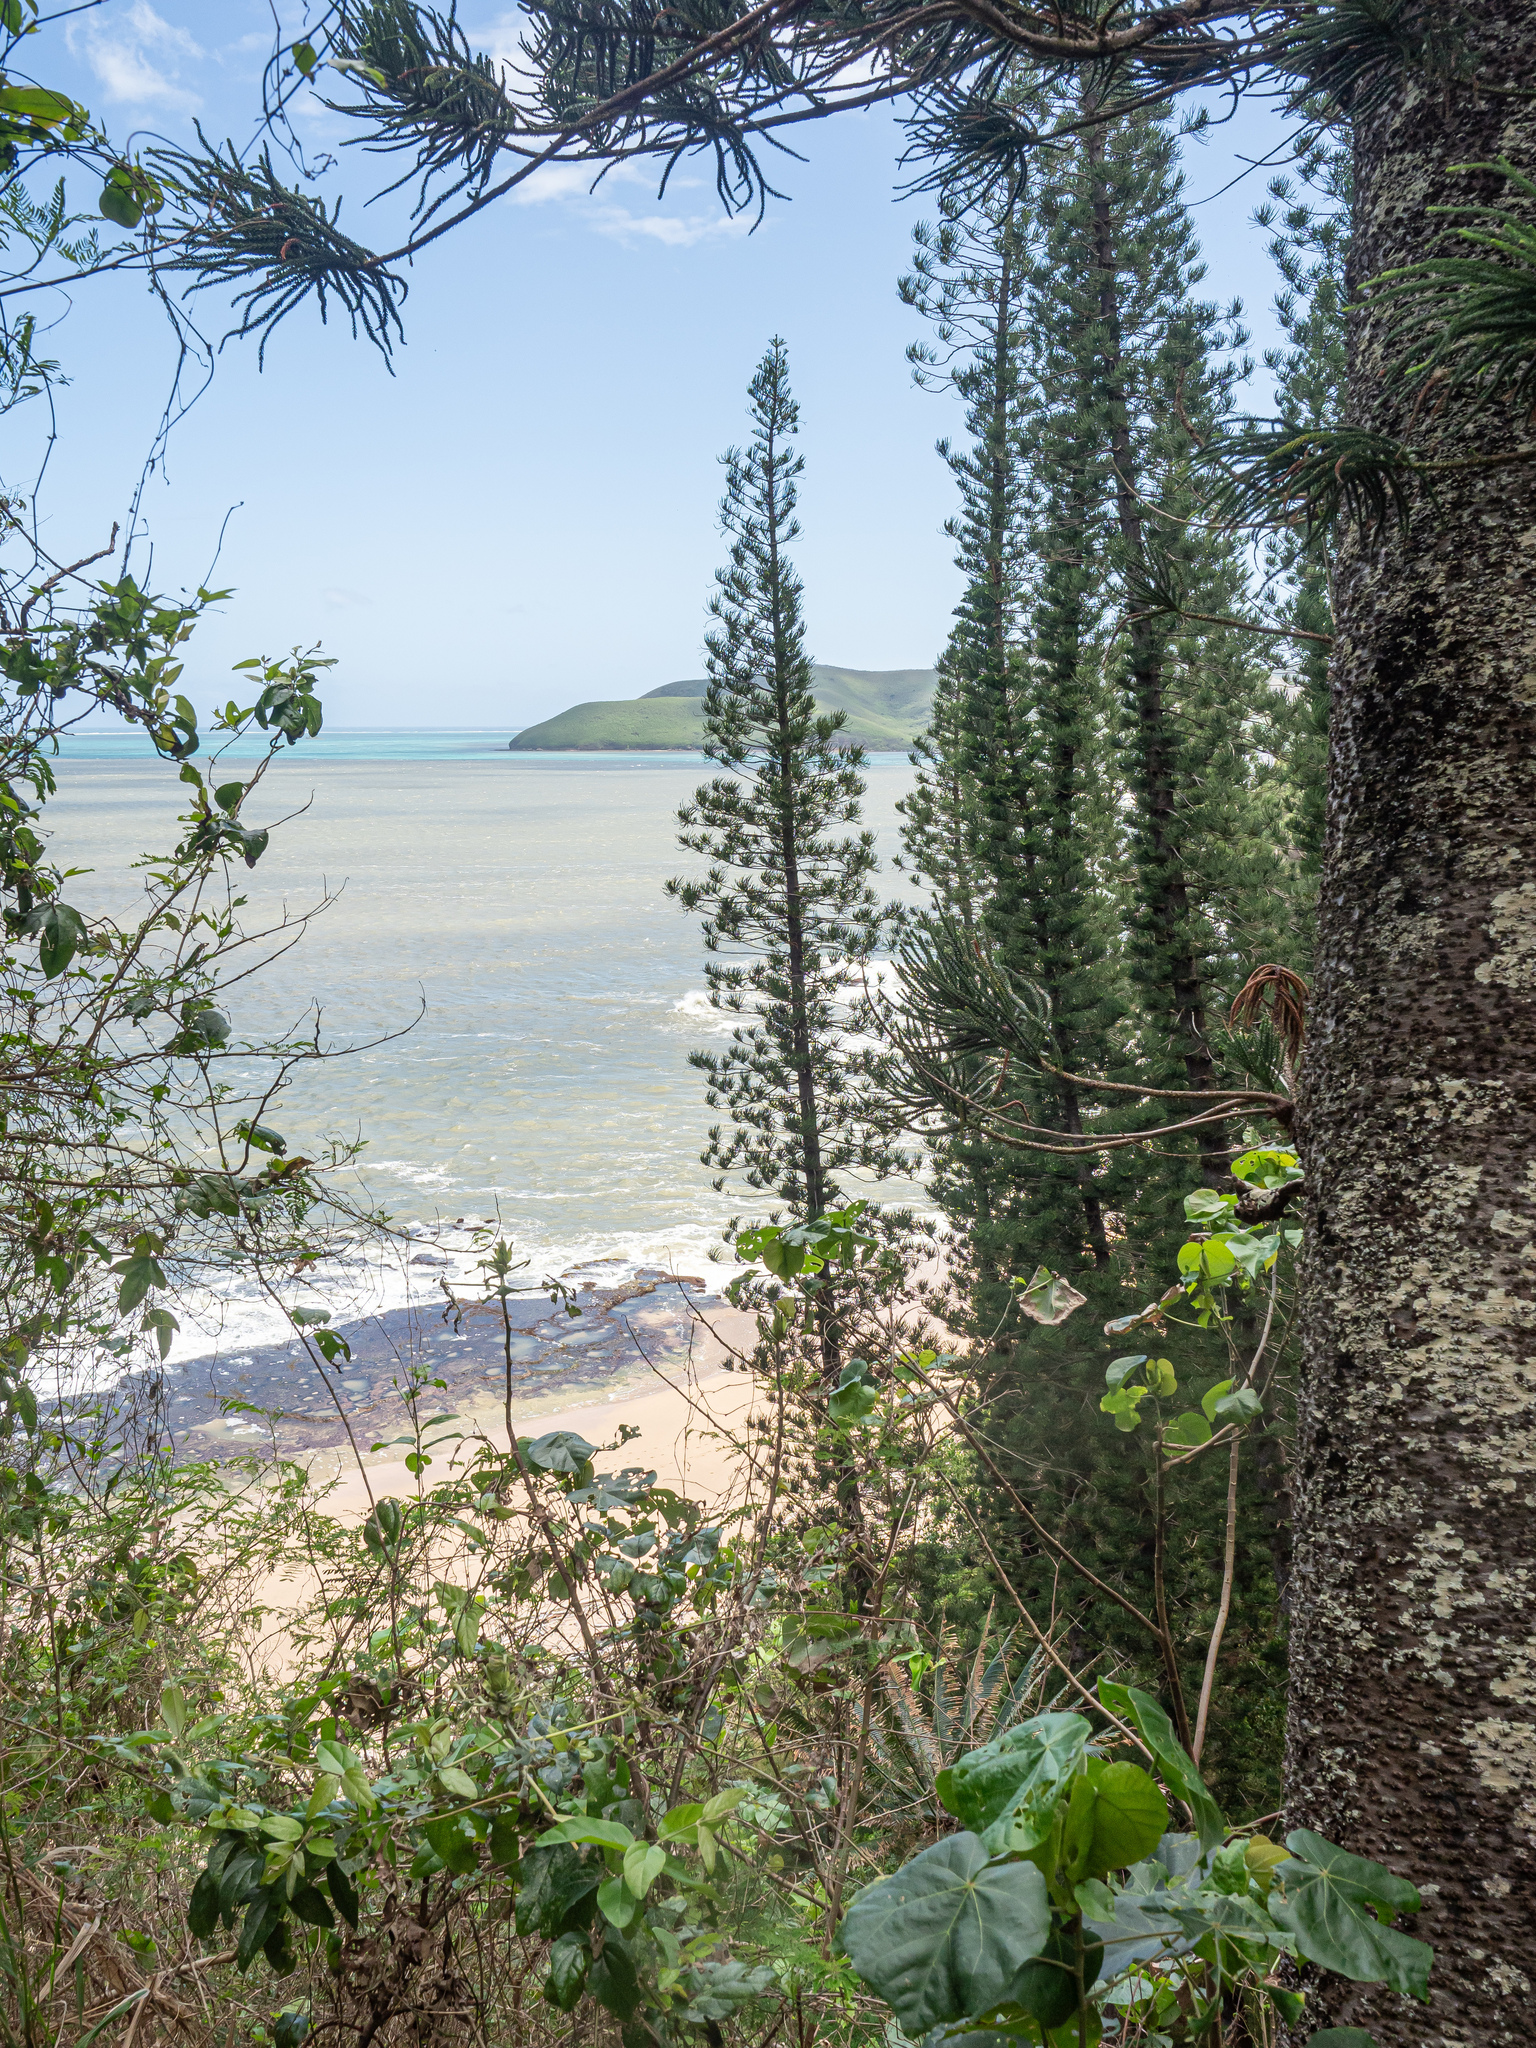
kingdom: Plantae
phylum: Tracheophyta
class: Pinopsida
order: Pinales
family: Araucariaceae
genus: Araucaria
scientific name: Araucaria columnaris
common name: Coral reef araucaria
